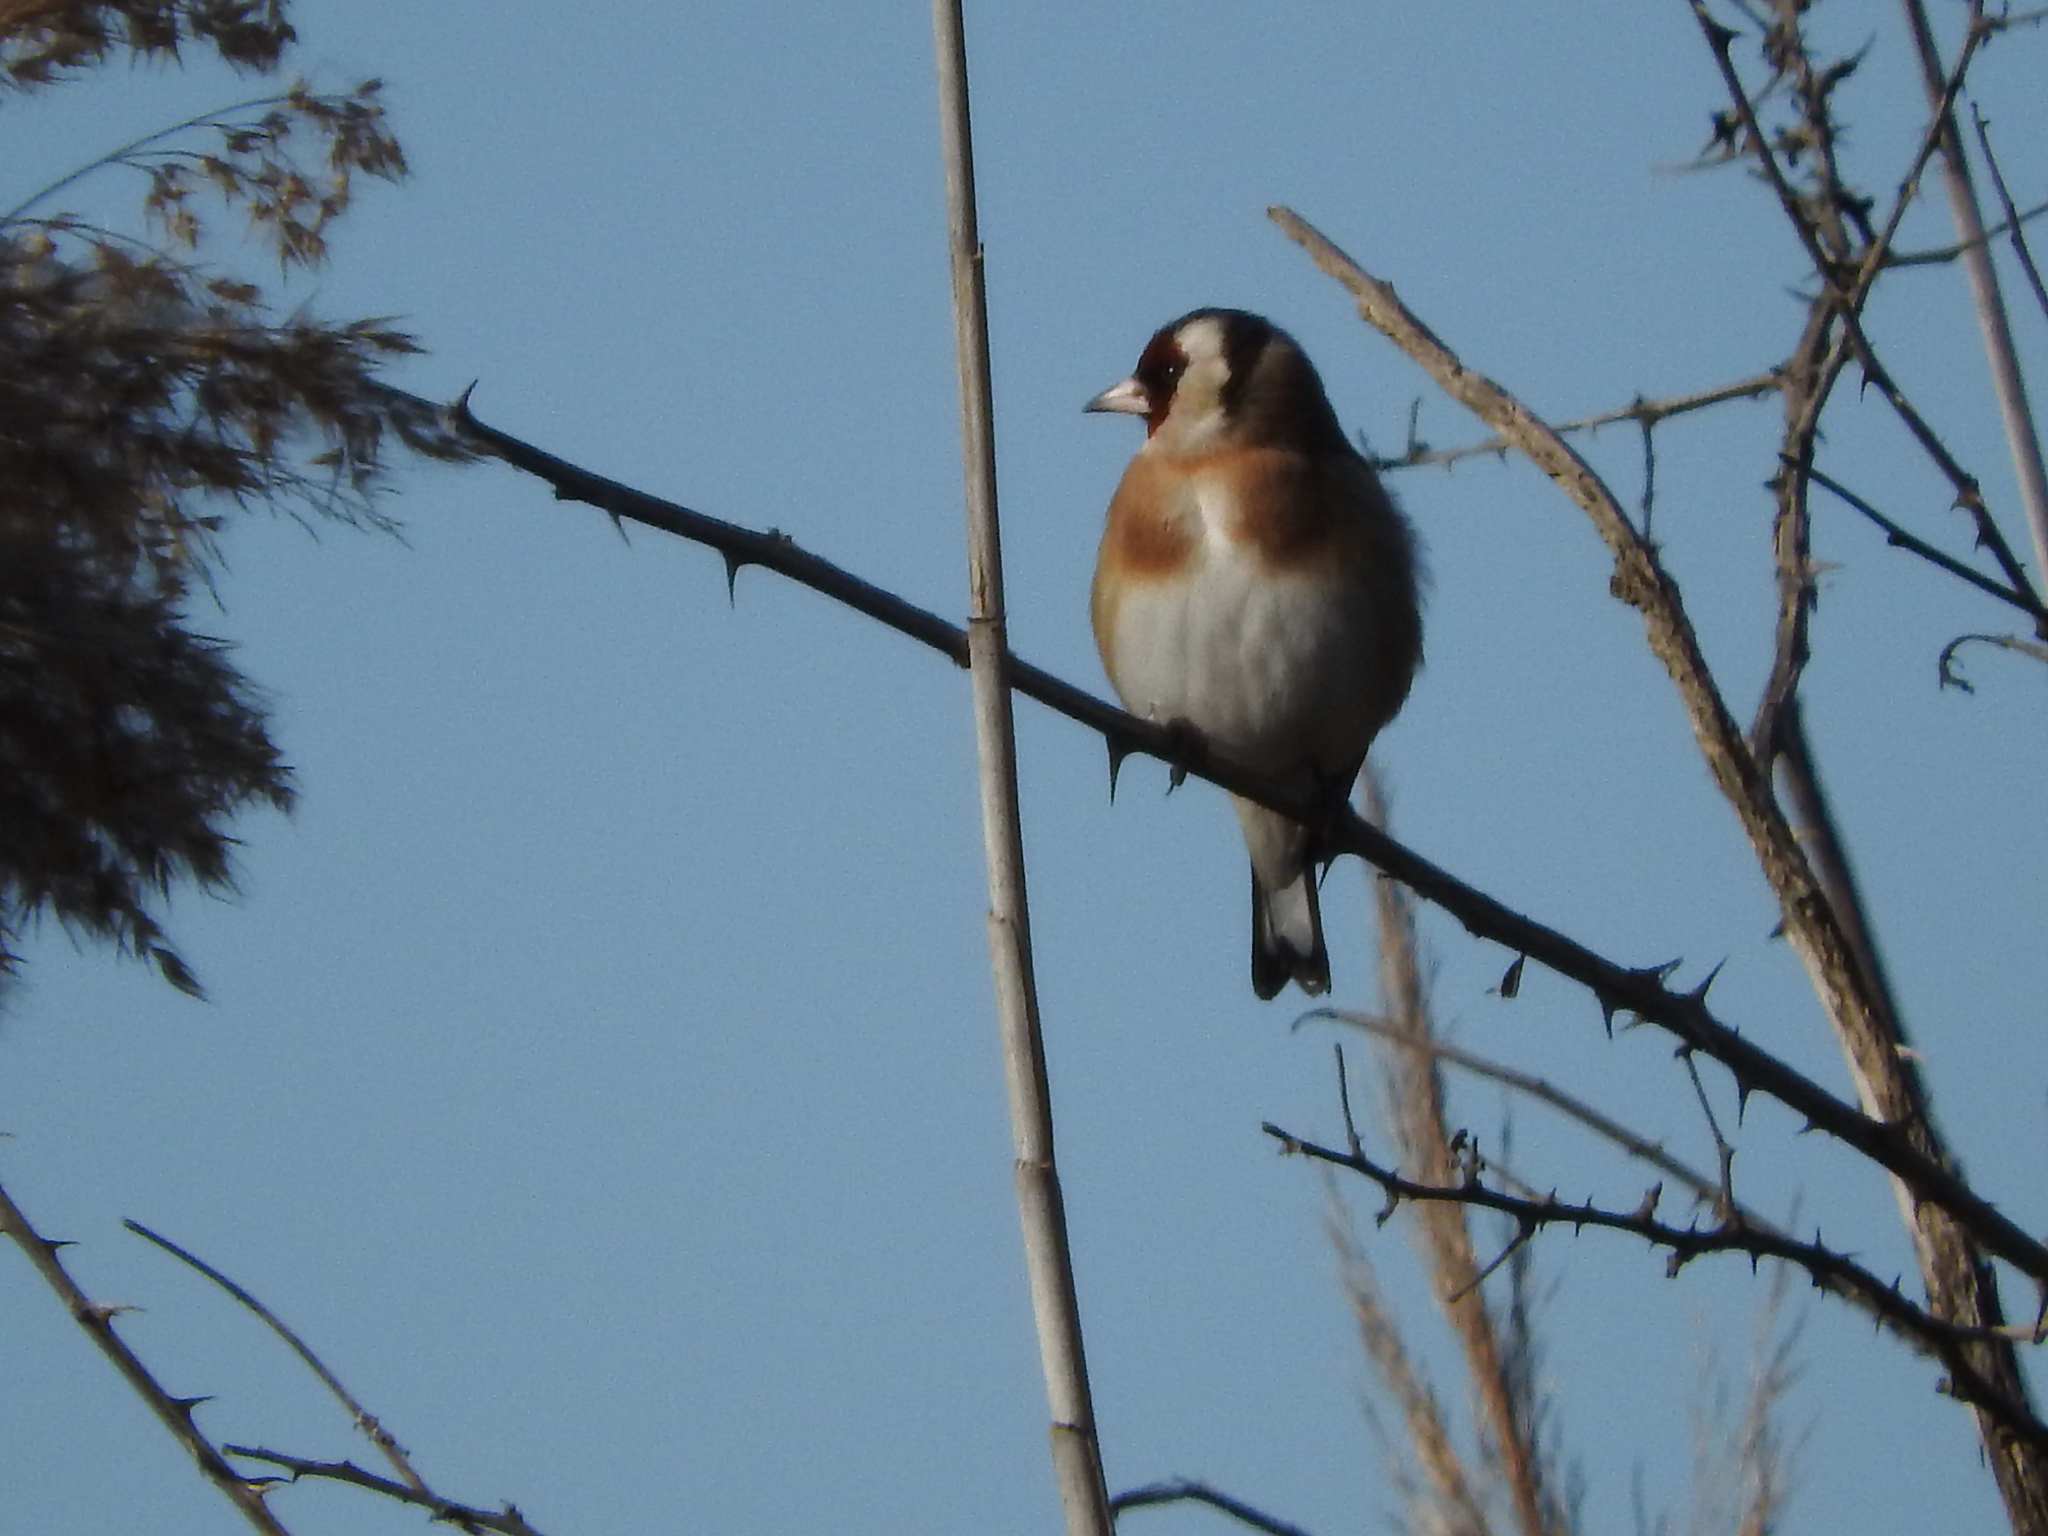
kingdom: Animalia
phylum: Chordata
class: Aves
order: Passeriformes
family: Fringillidae
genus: Carduelis
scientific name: Carduelis carduelis
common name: European goldfinch
